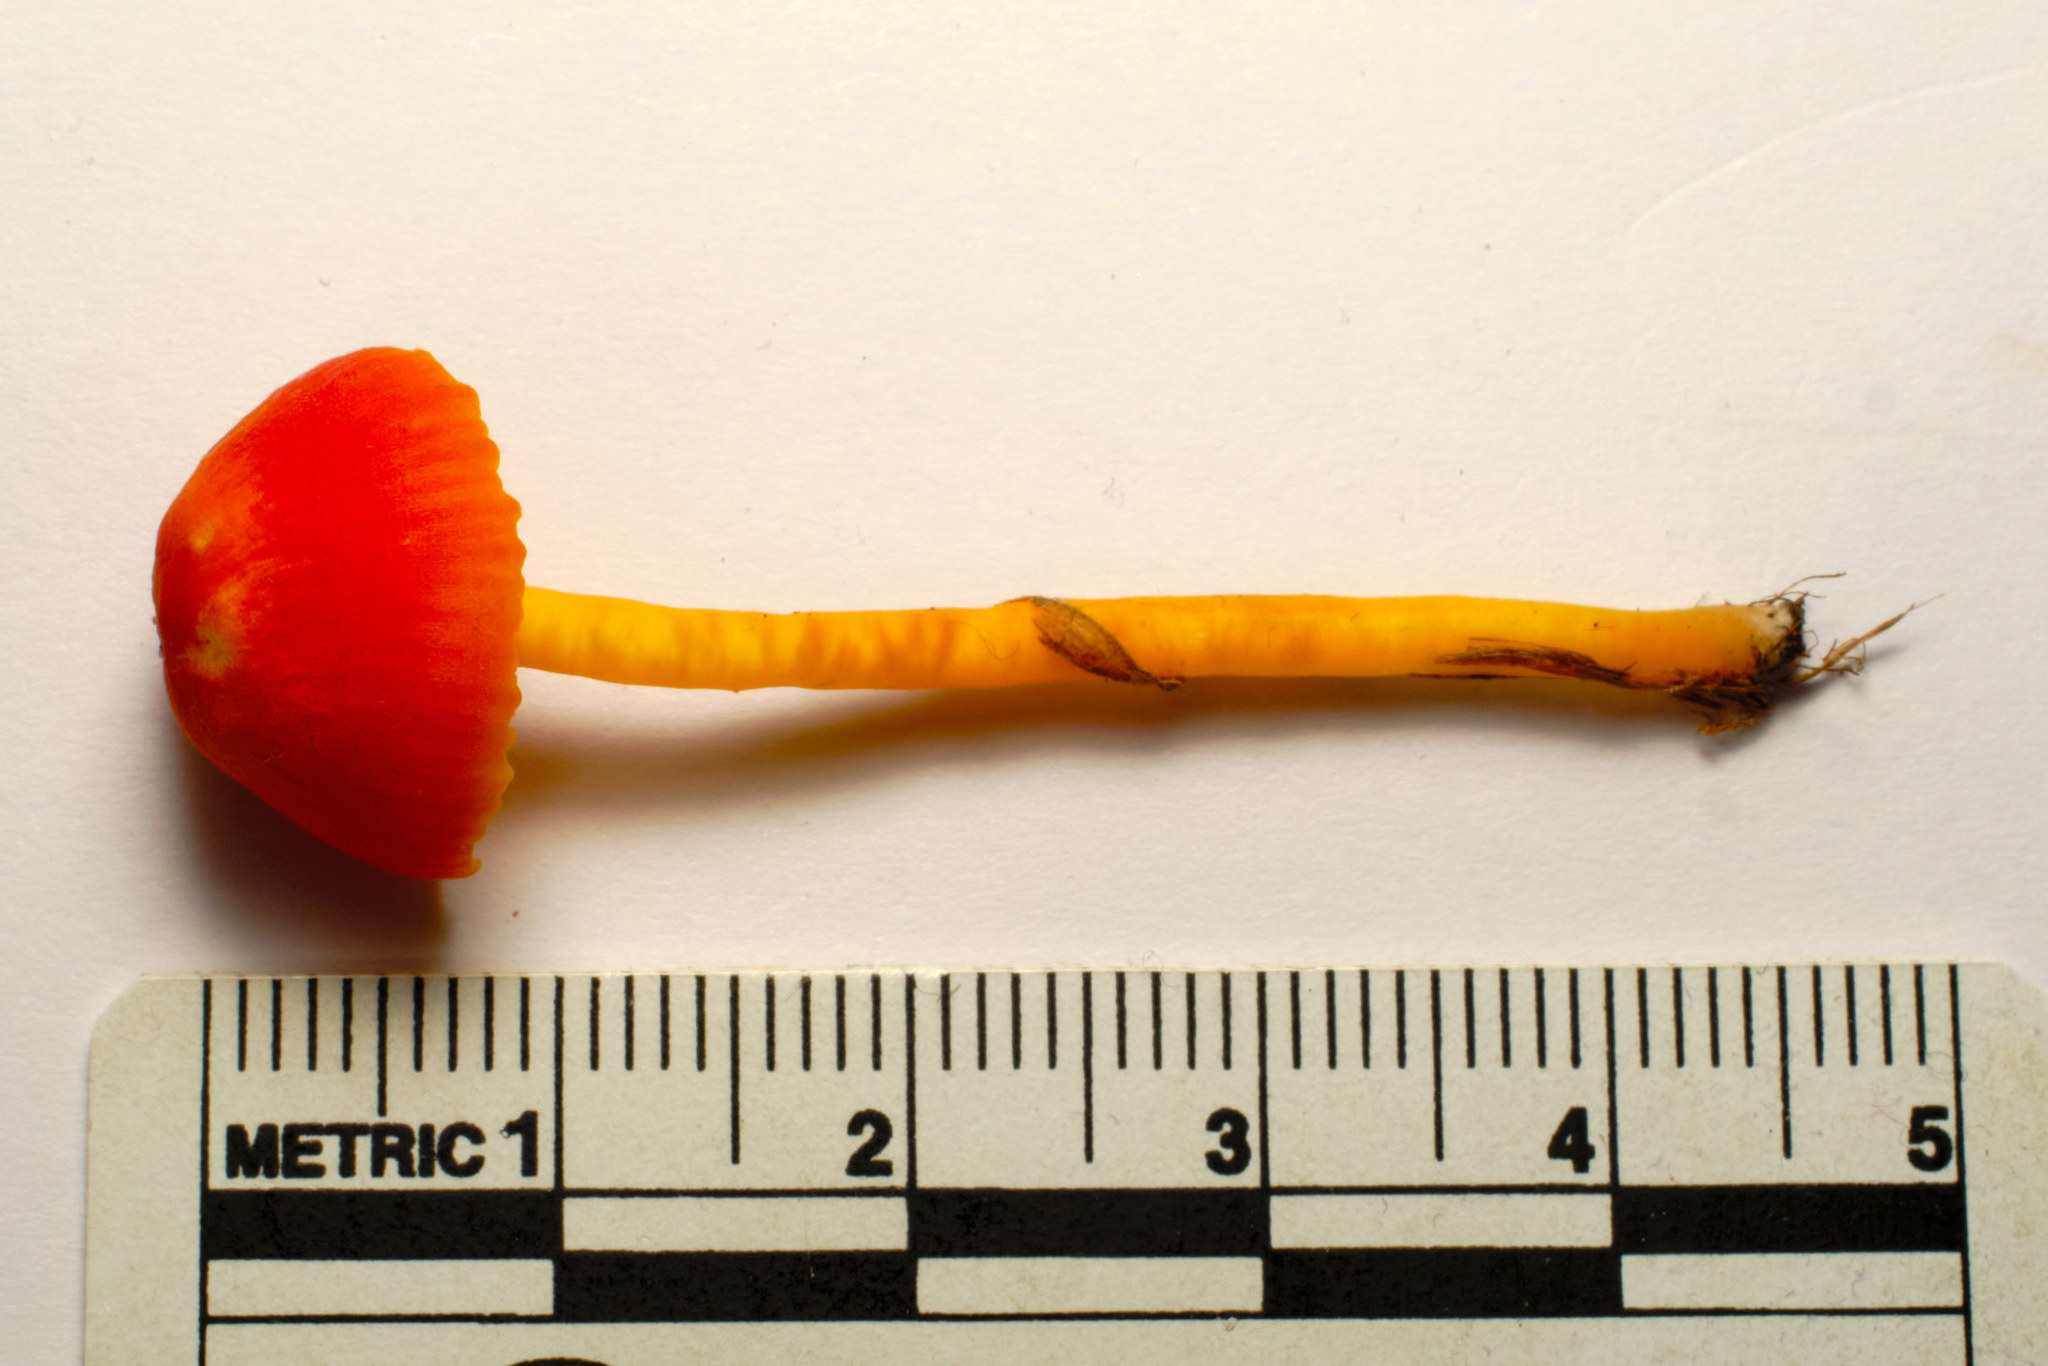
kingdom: Fungi
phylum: Basidiomycota
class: Agaricomycetes
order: Agaricales
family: Hygrophoraceae
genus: Hygrocybe
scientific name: Hygrocybe mucronella
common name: Bitter waxcap
